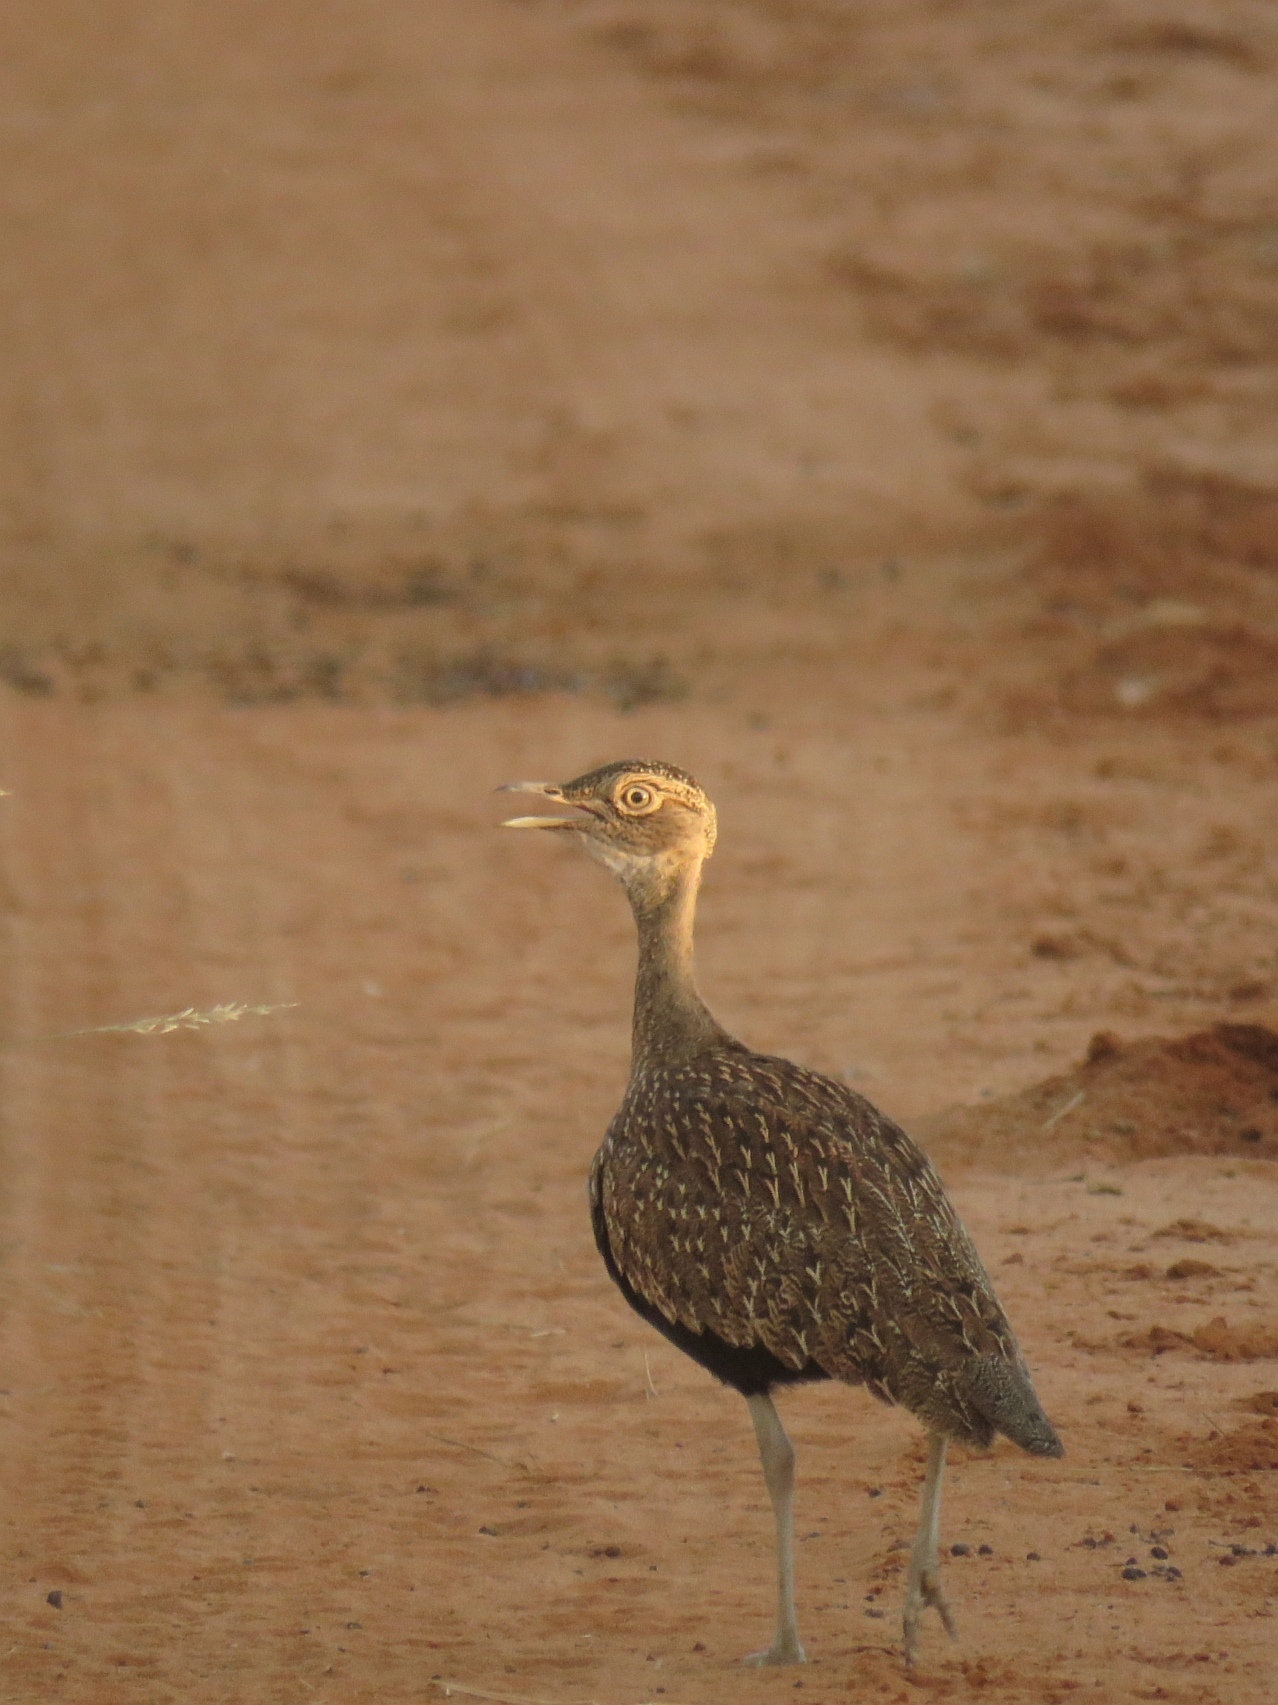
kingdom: Animalia
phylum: Chordata
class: Aves
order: Otidiformes
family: Otididae
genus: Lophotis
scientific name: Lophotis ruficrista
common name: Red-crested korhaan
